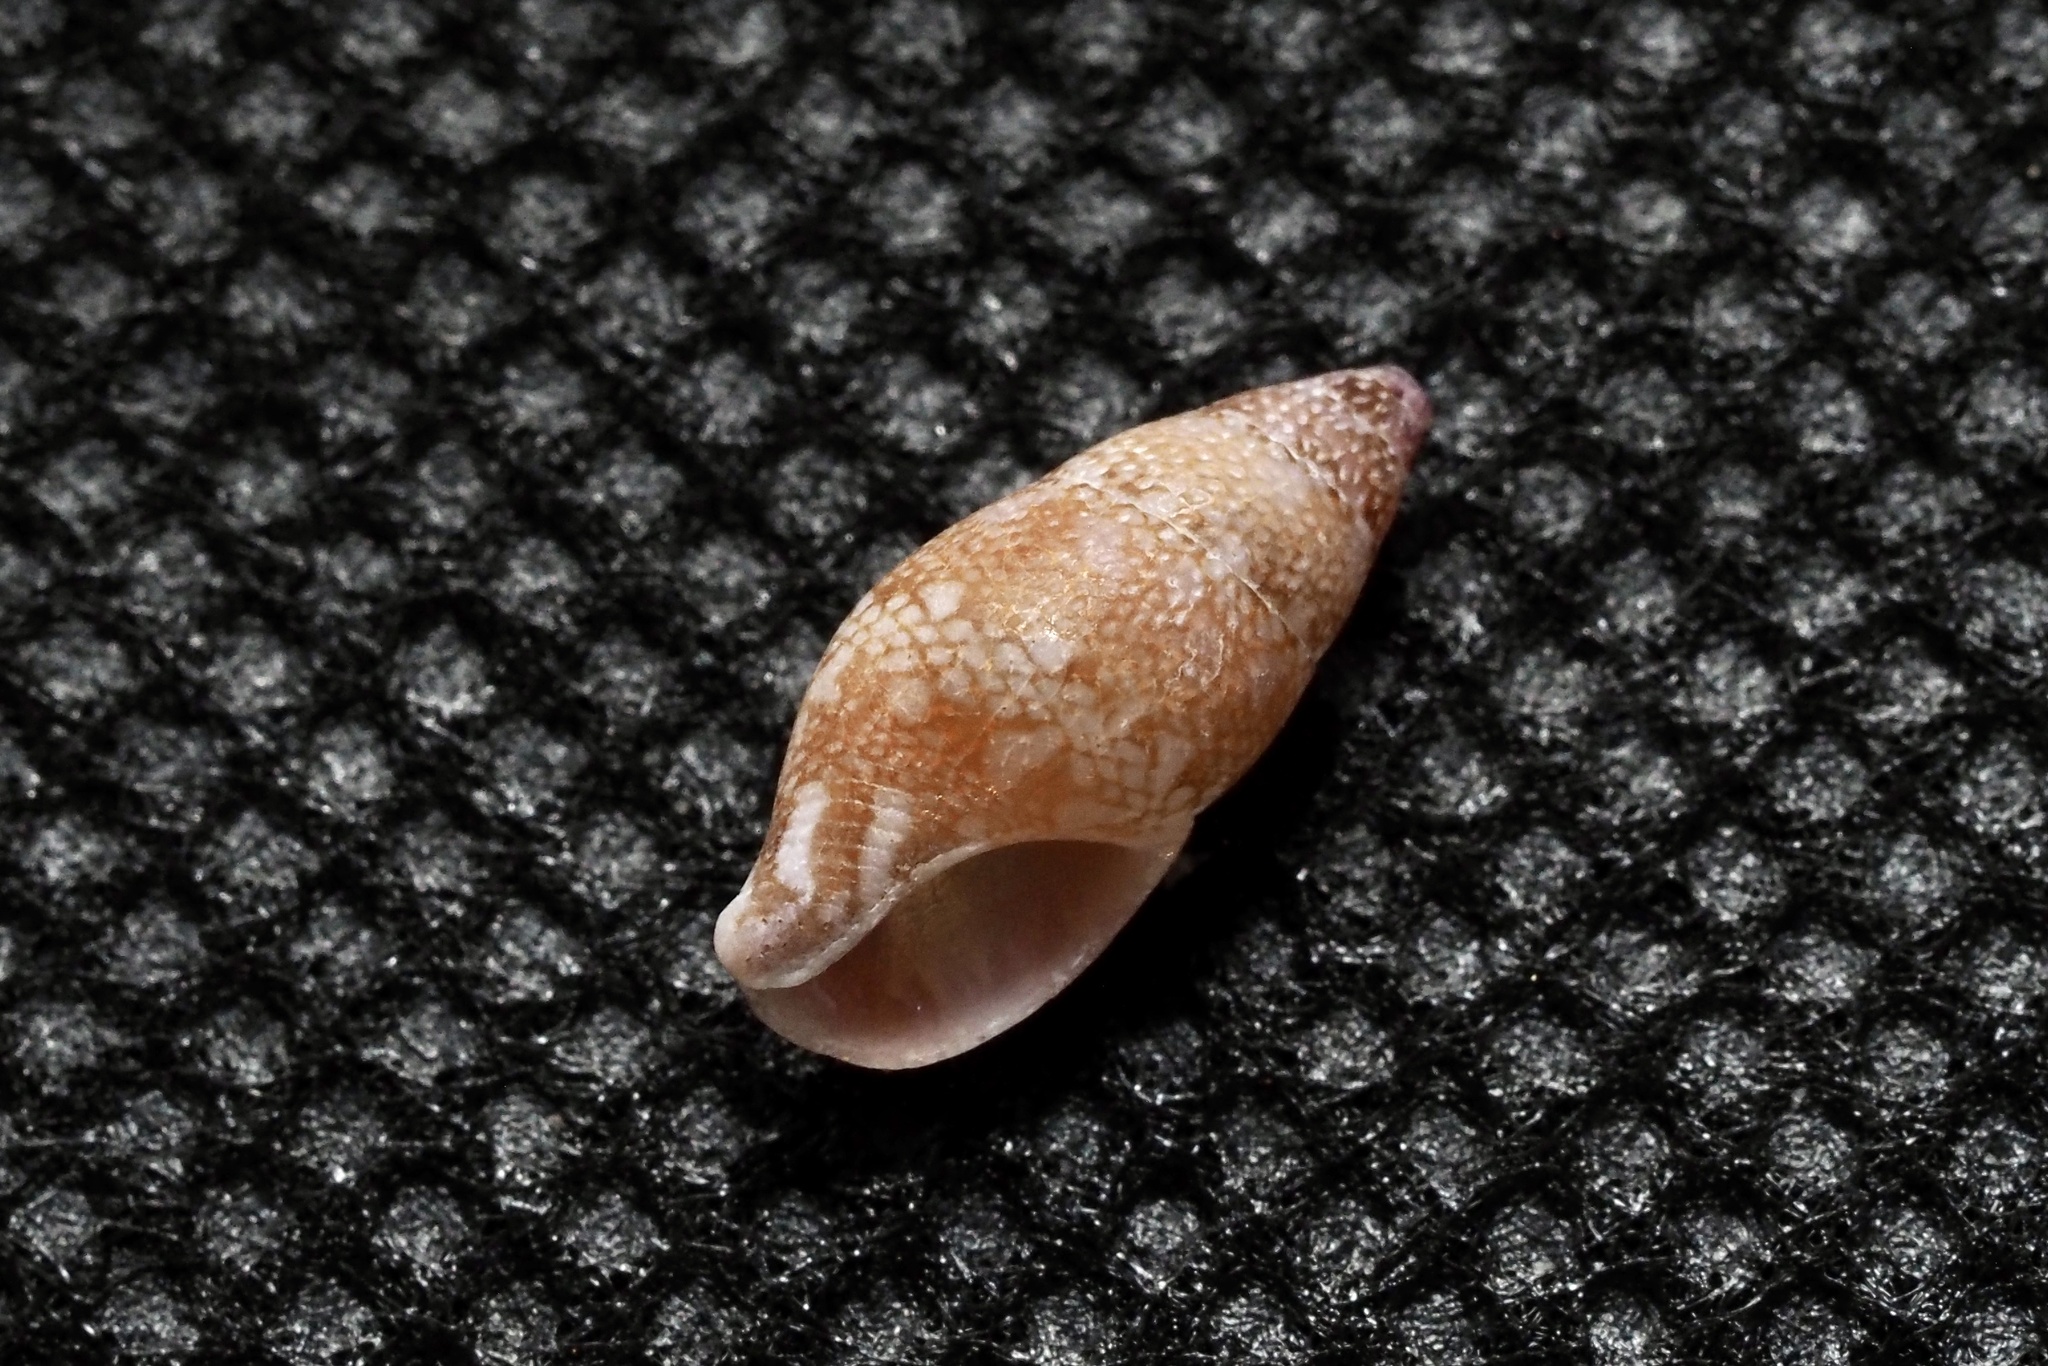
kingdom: Animalia
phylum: Mollusca
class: Gastropoda
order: Neogastropoda
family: Columbellidae
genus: Mitrella
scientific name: Mitrella bicincta
